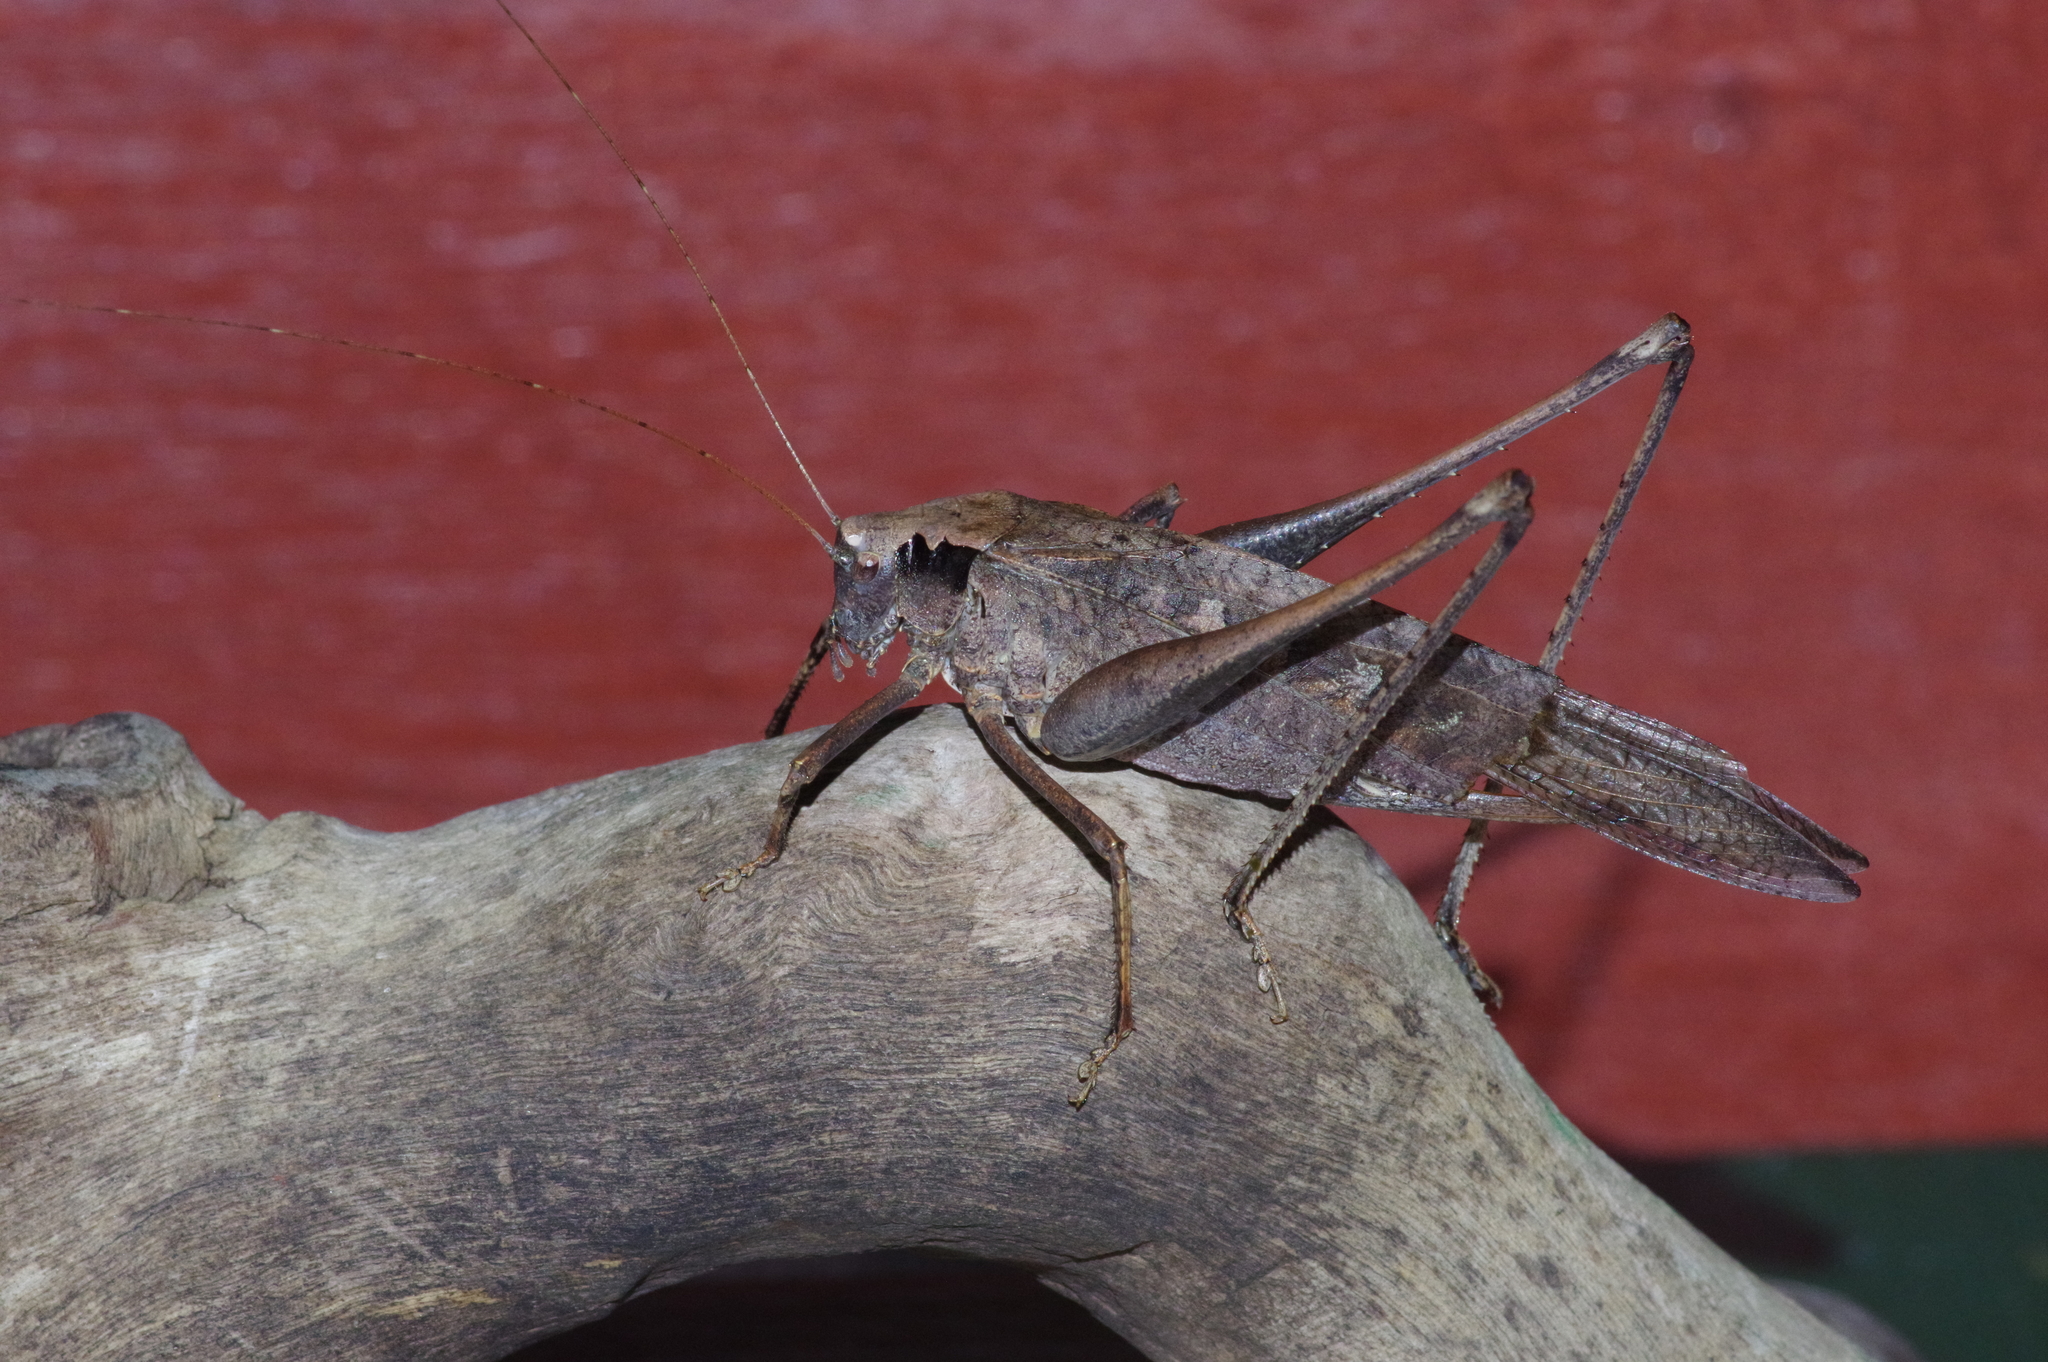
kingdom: Animalia
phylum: Arthropoda
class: Insecta
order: Orthoptera
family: Tettigoniidae
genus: Mecopoda
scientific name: Mecopoda elongata
